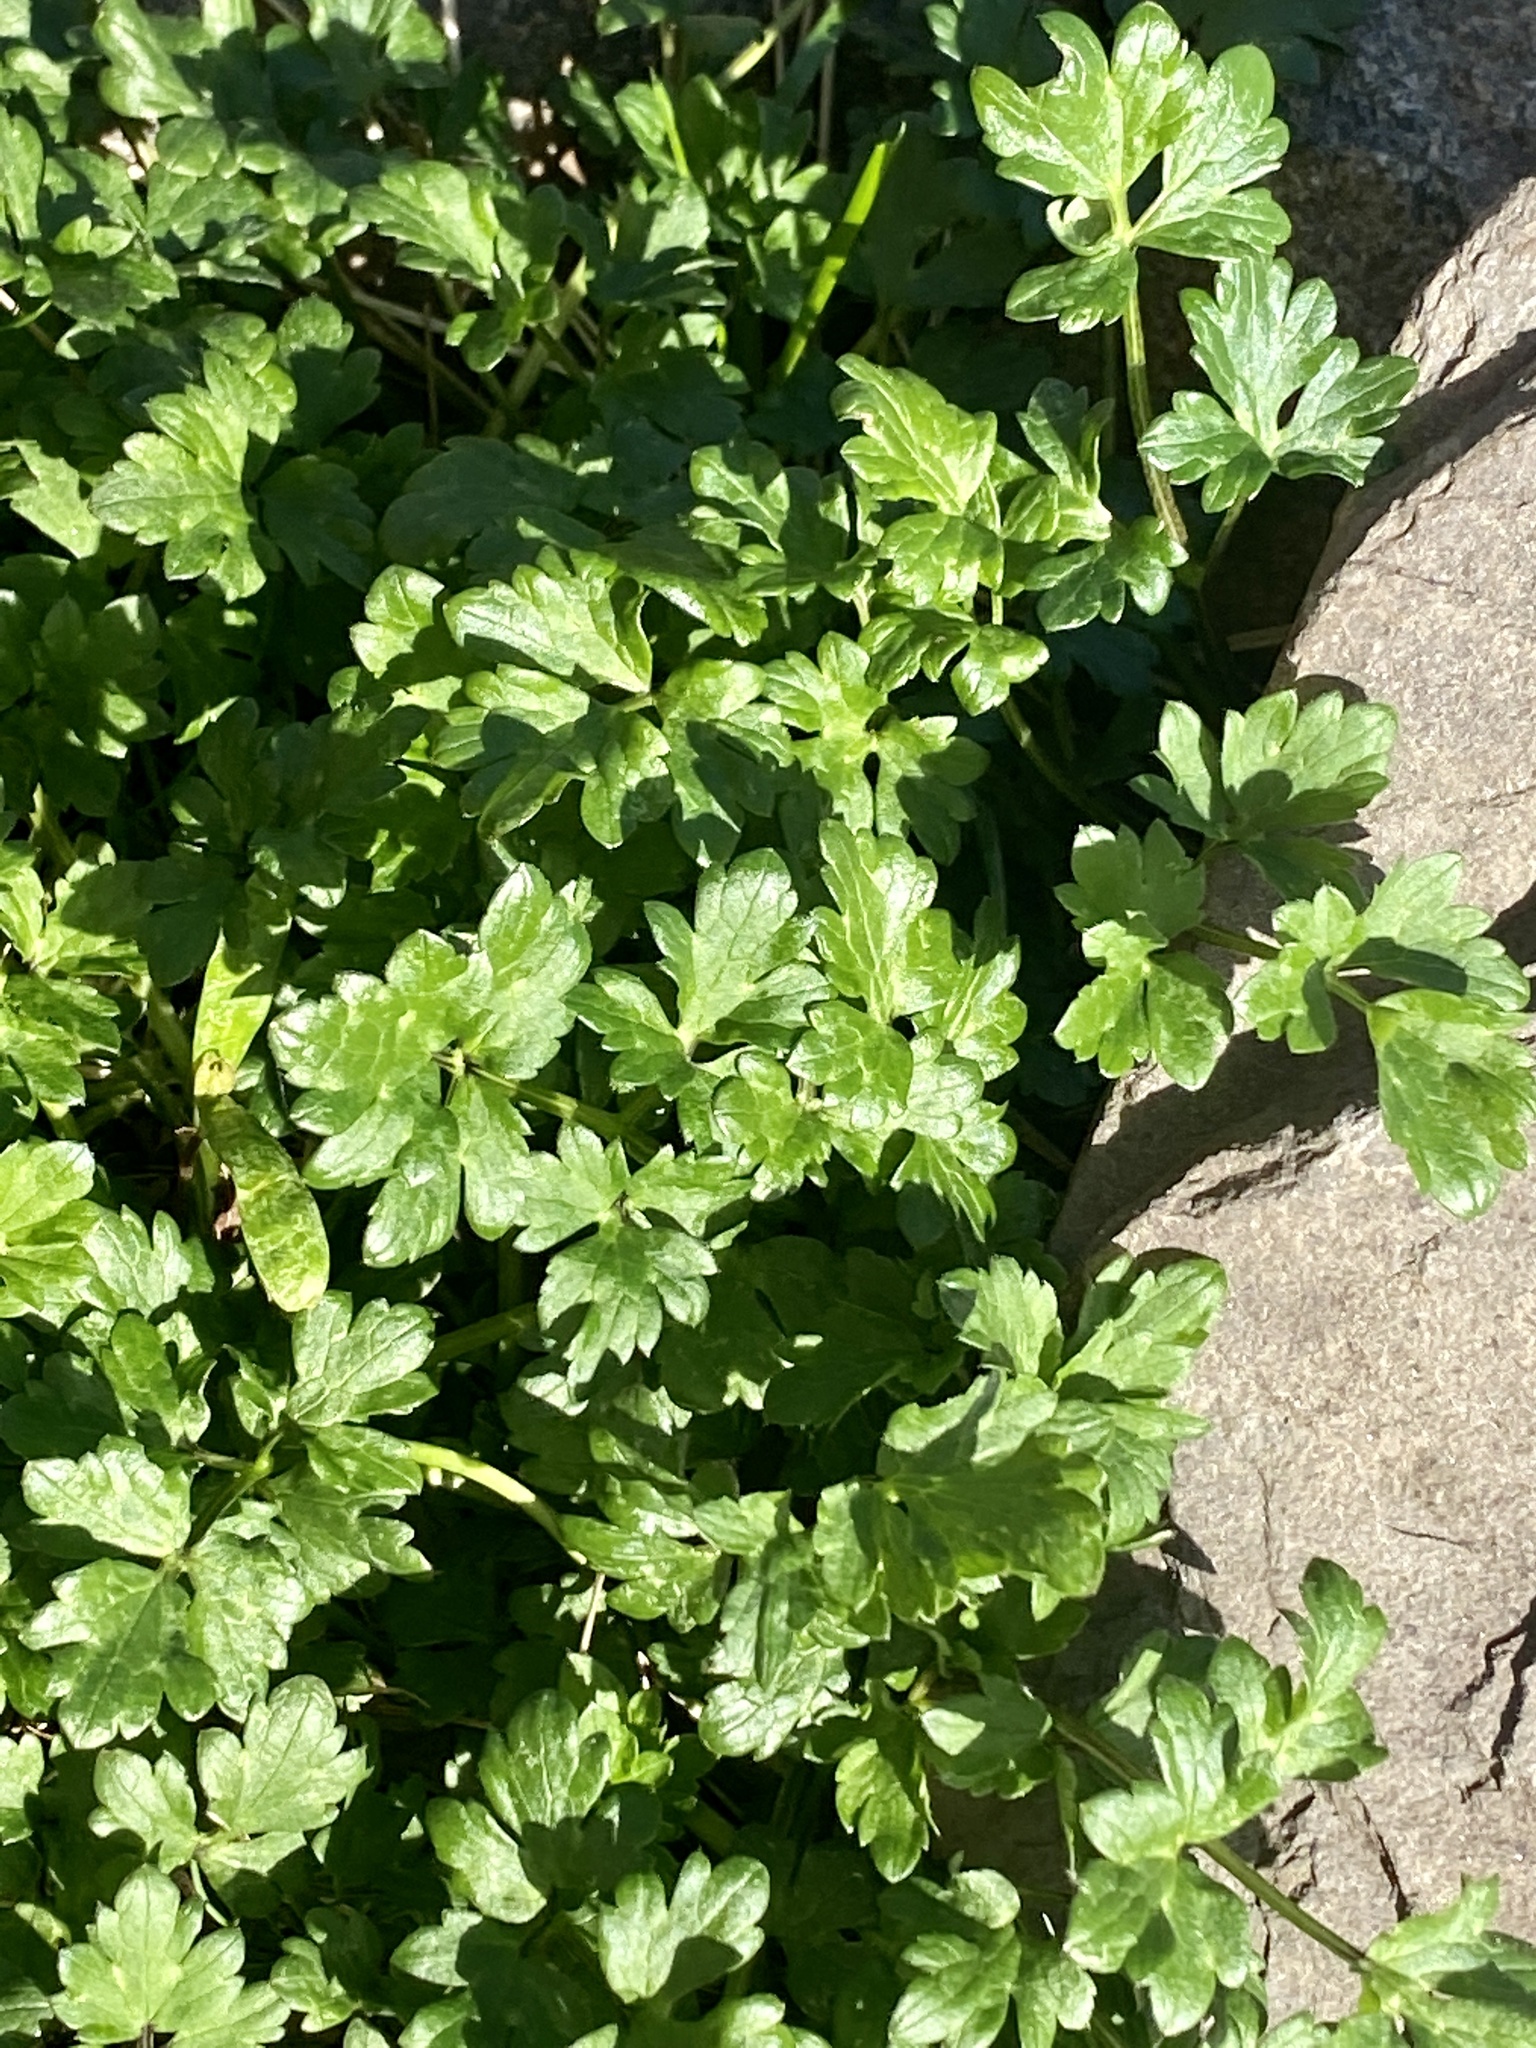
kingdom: Plantae
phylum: Tracheophyta
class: Magnoliopsida
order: Ranunculales
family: Ranunculaceae
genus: Ranunculus
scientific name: Ranunculus repens
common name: Creeping buttercup
